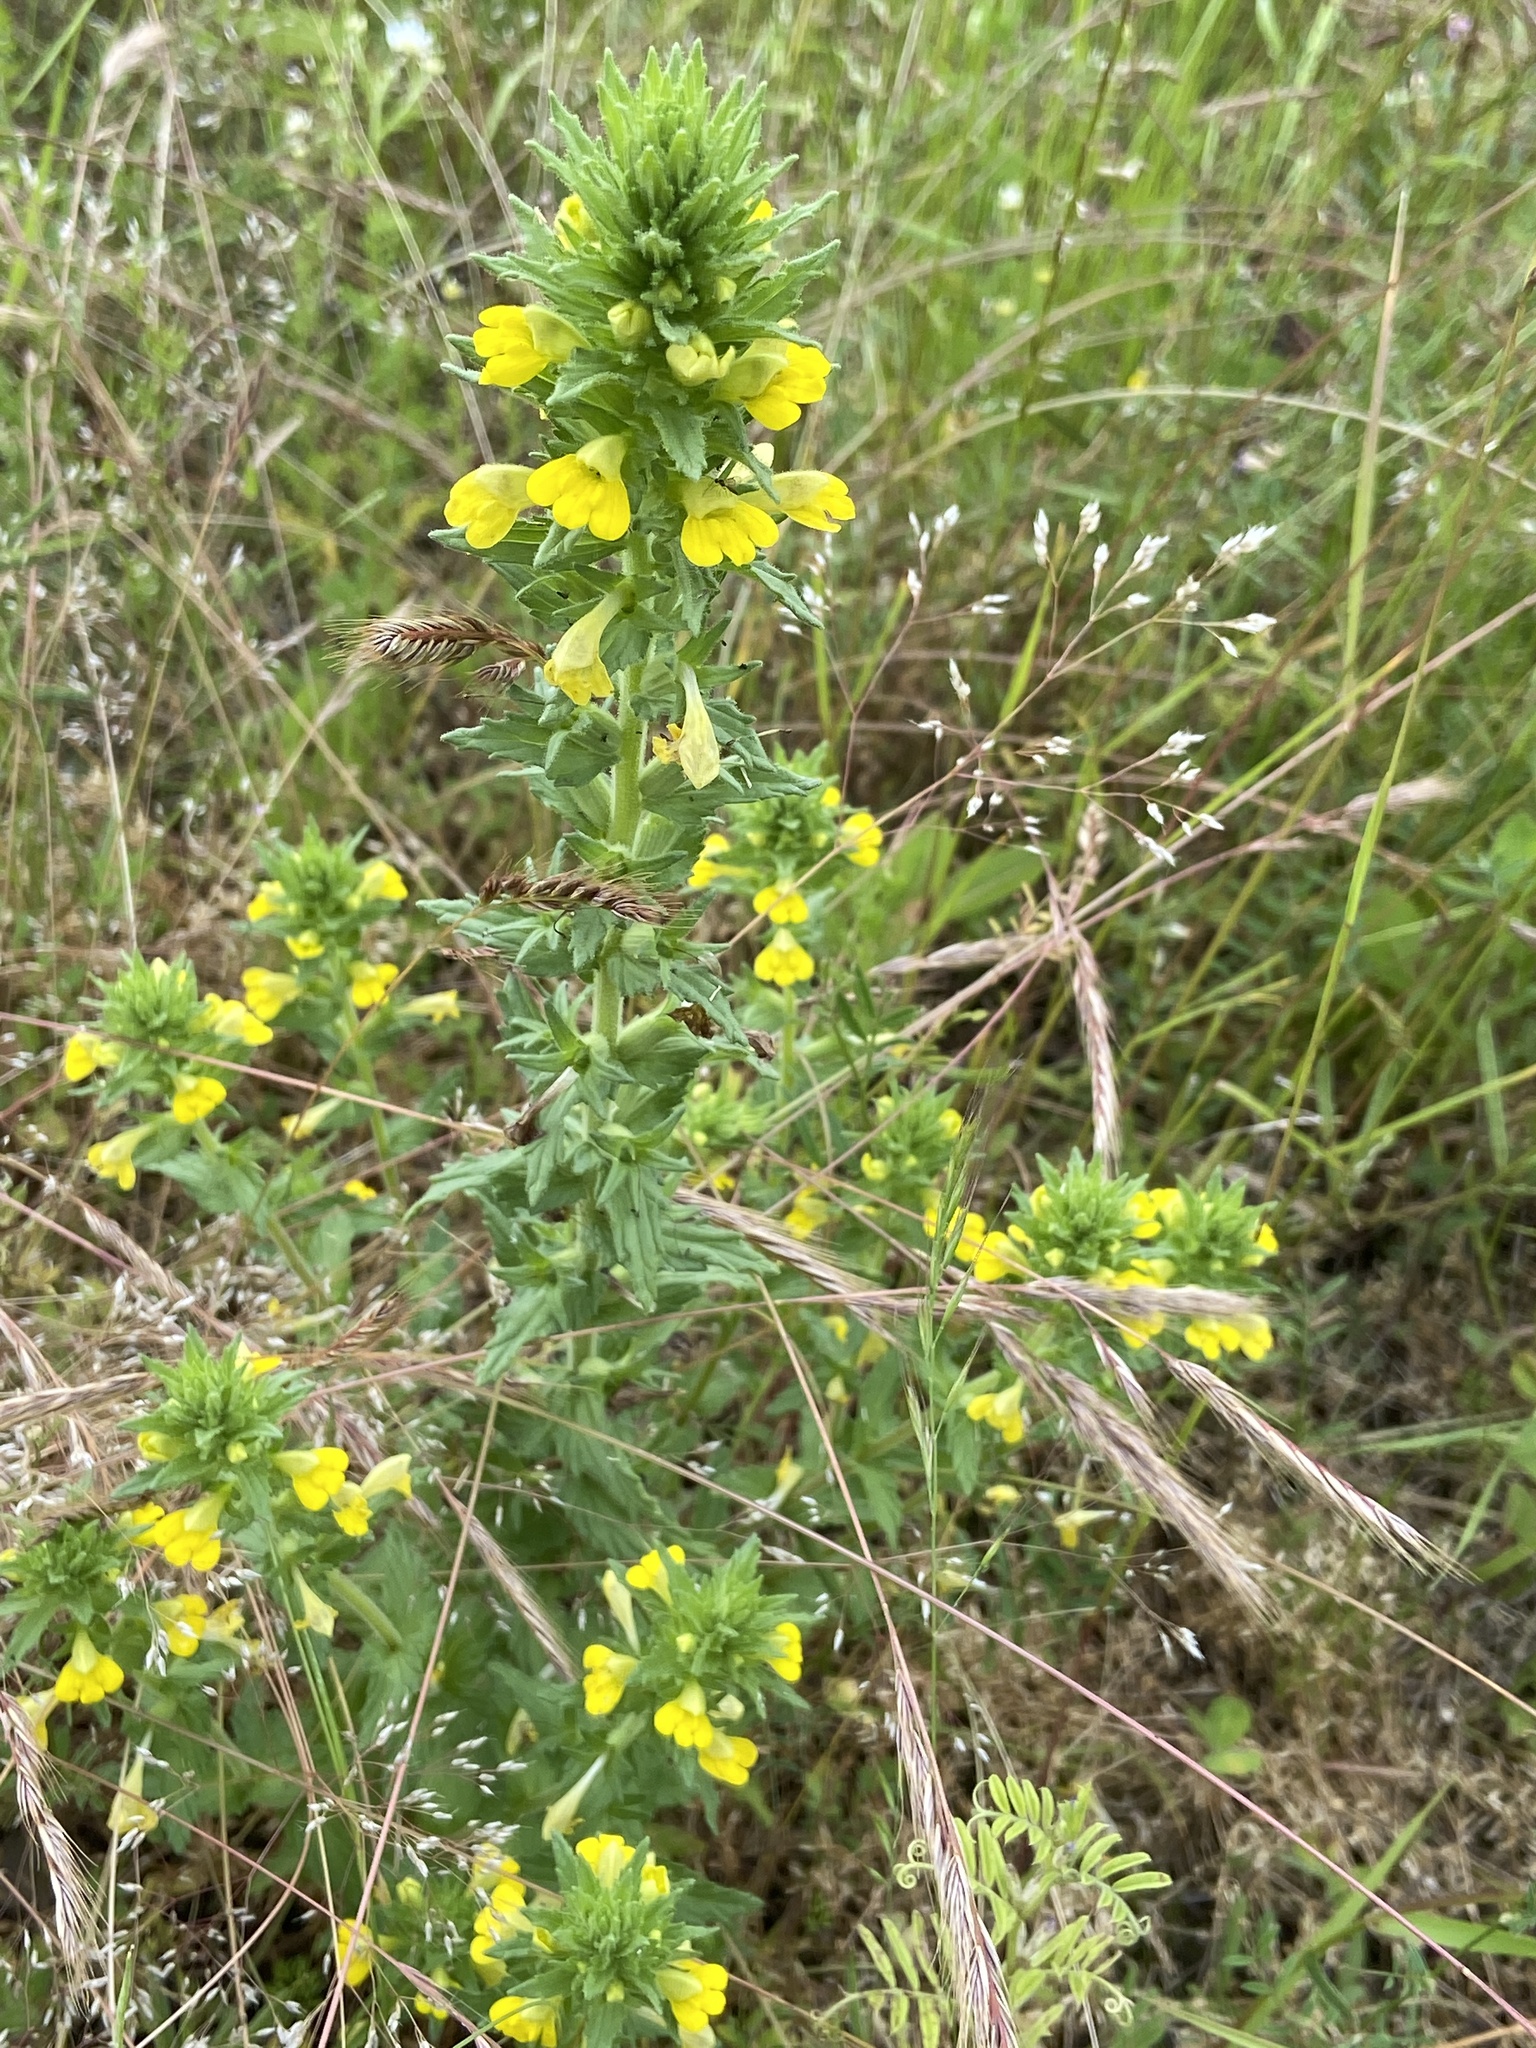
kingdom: Plantae
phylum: Tracheophyta
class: Magnoliopsida
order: Lamiales
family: Orobanchaceae
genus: Bellardia
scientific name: Bellardia viscosa
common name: Sticky parentucellia
